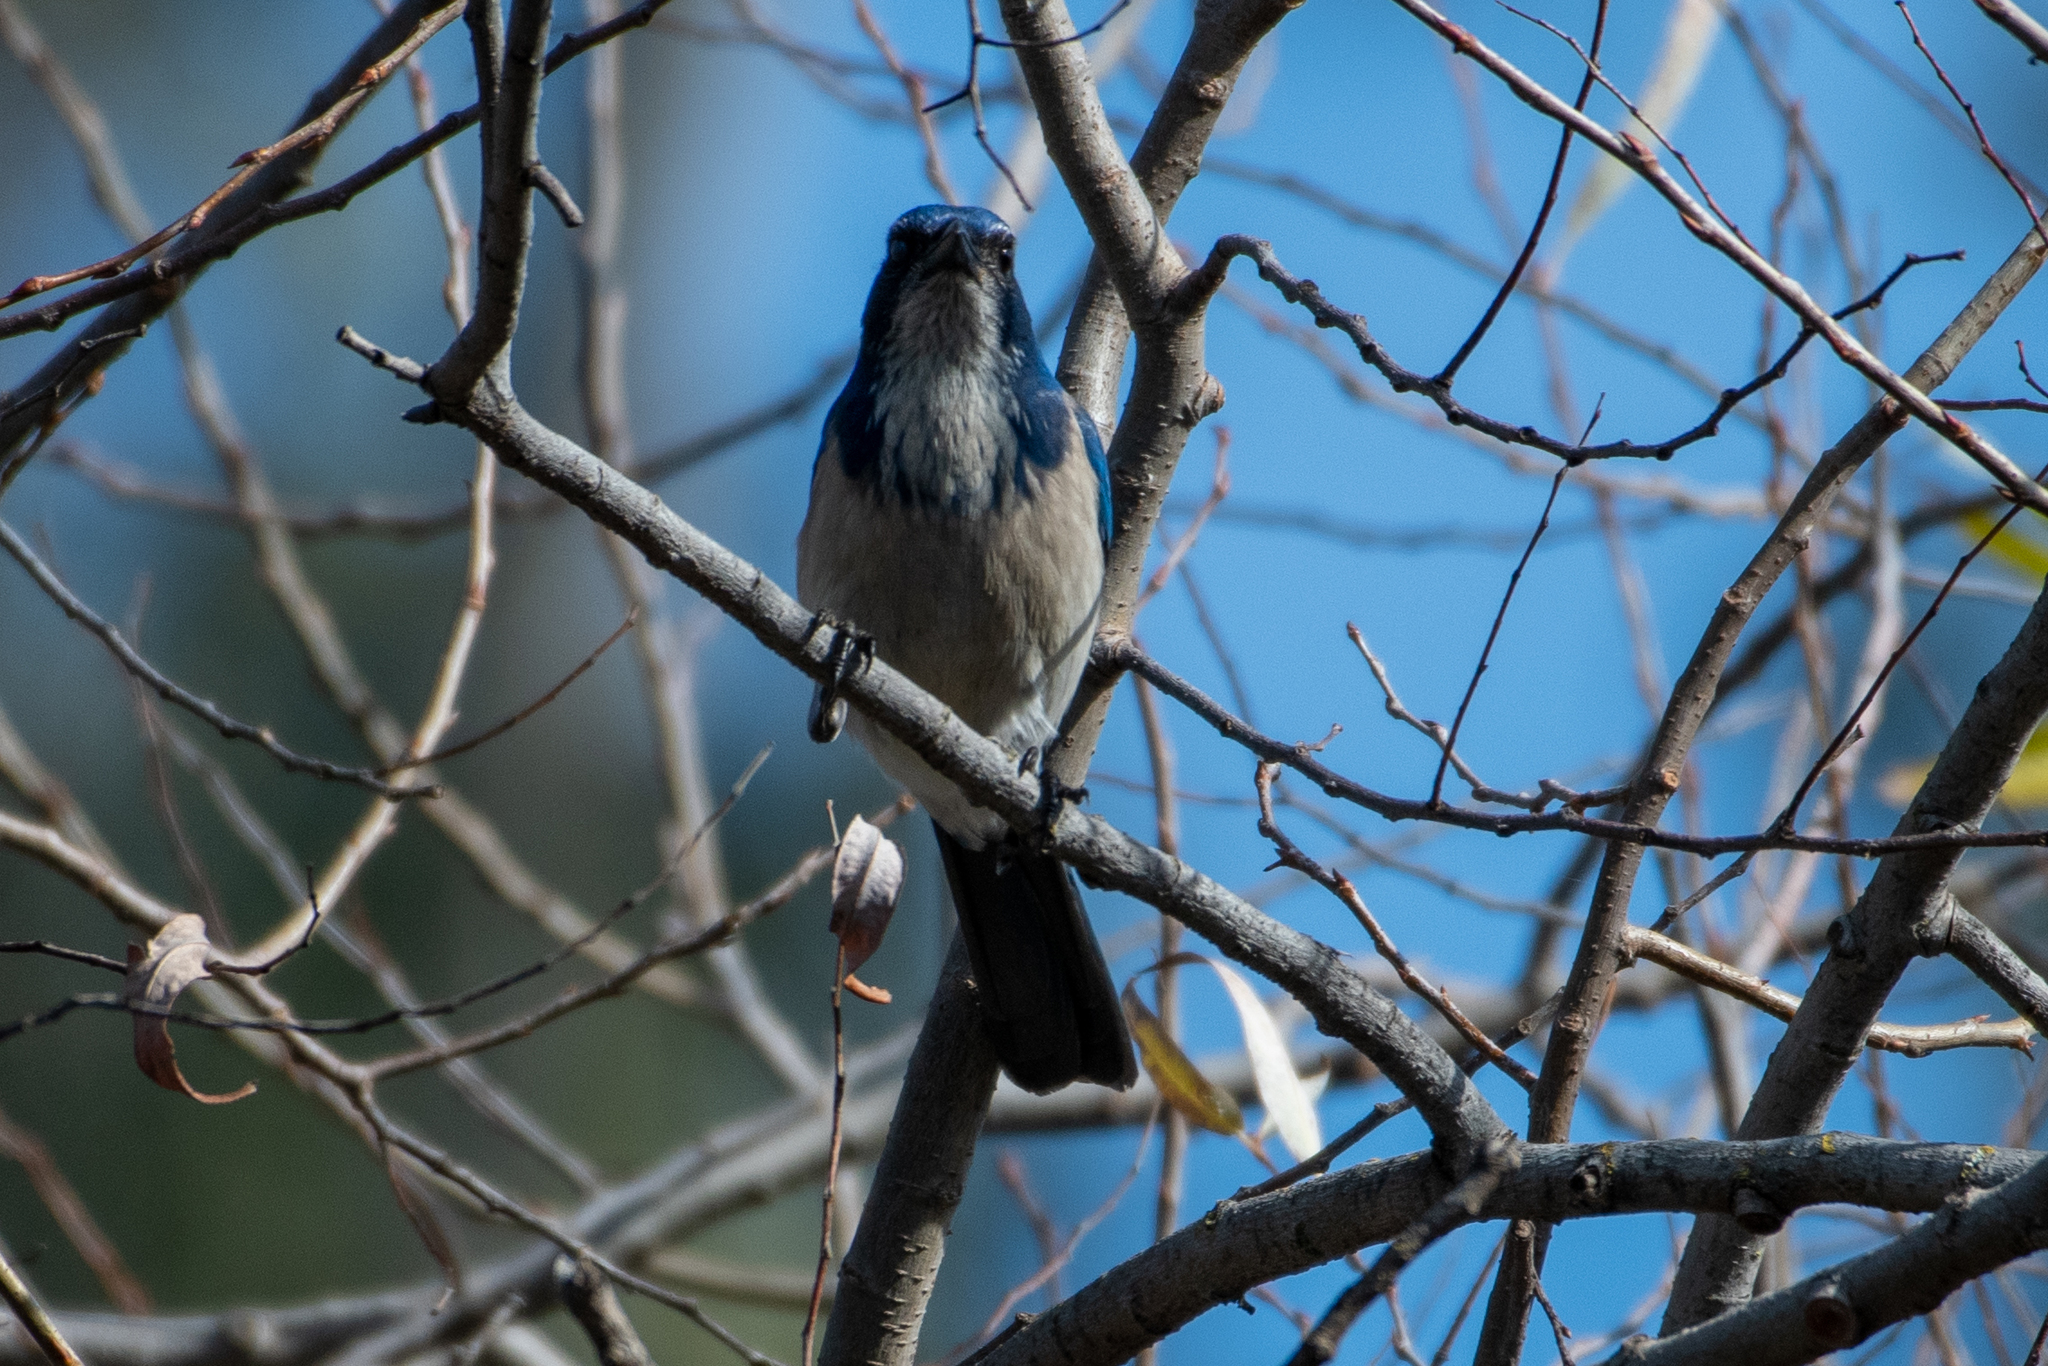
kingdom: Animalia
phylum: Chordata
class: Aves
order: Passeriformes
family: Corvidae
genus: Aphelocoma
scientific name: Aphelocoma californica
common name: California scrub-jay
